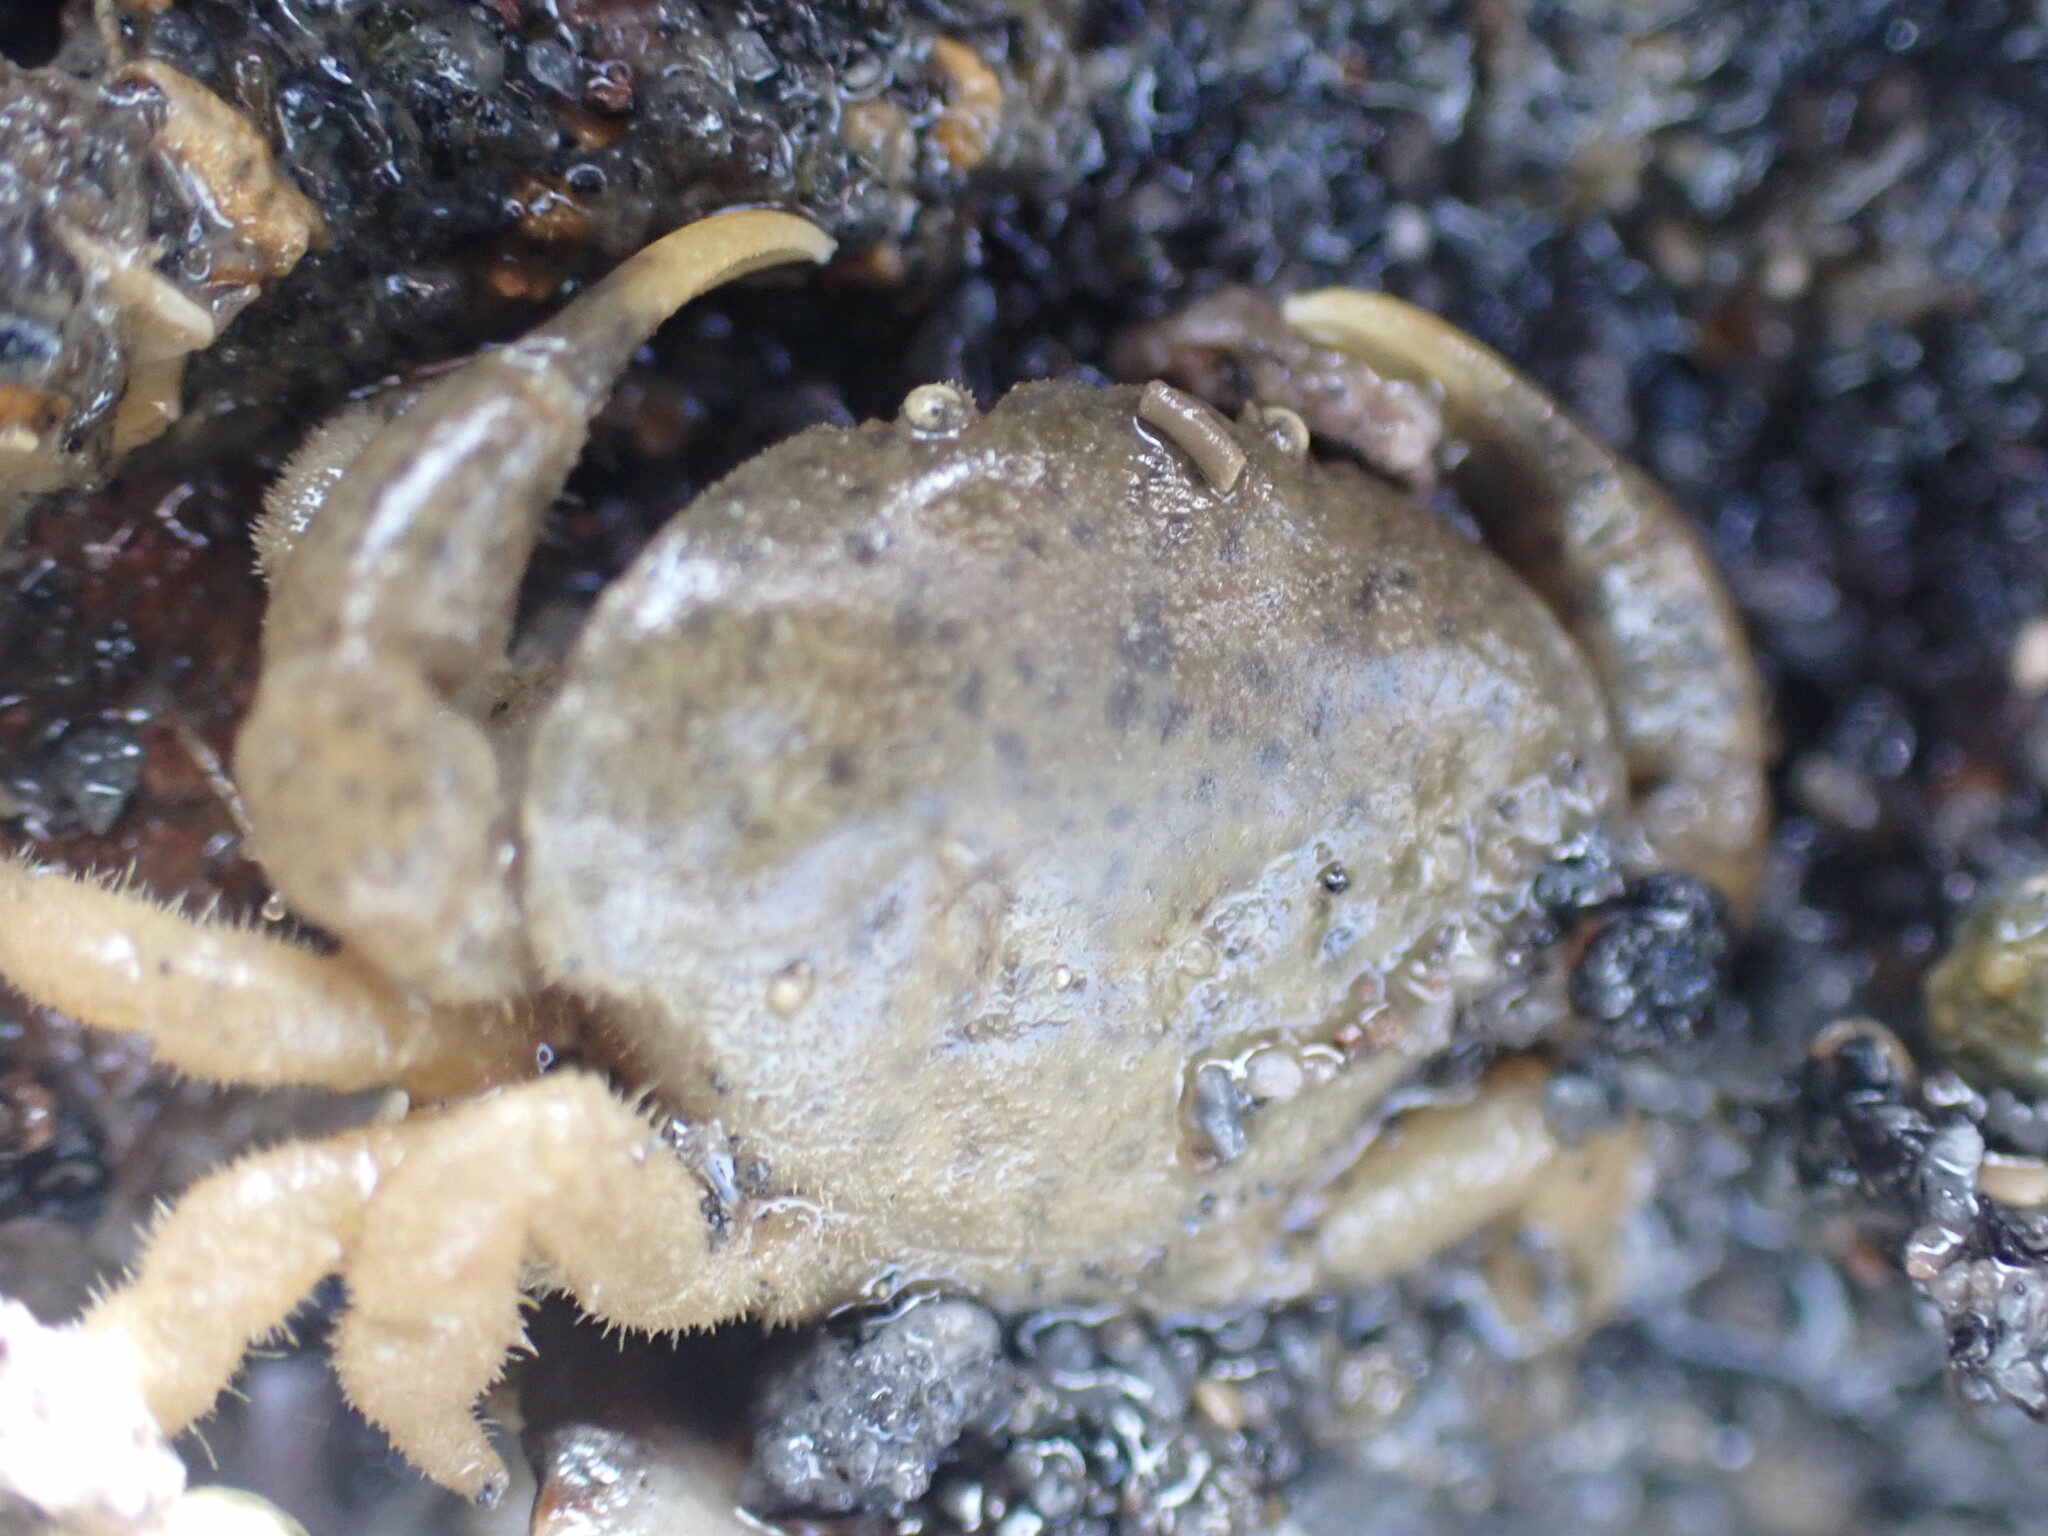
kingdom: Animalia
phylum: Arthropoda
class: Malacostraca
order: Decapoda
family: Heteroziidae
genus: Heterozius
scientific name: Heterozius rotundifrons
